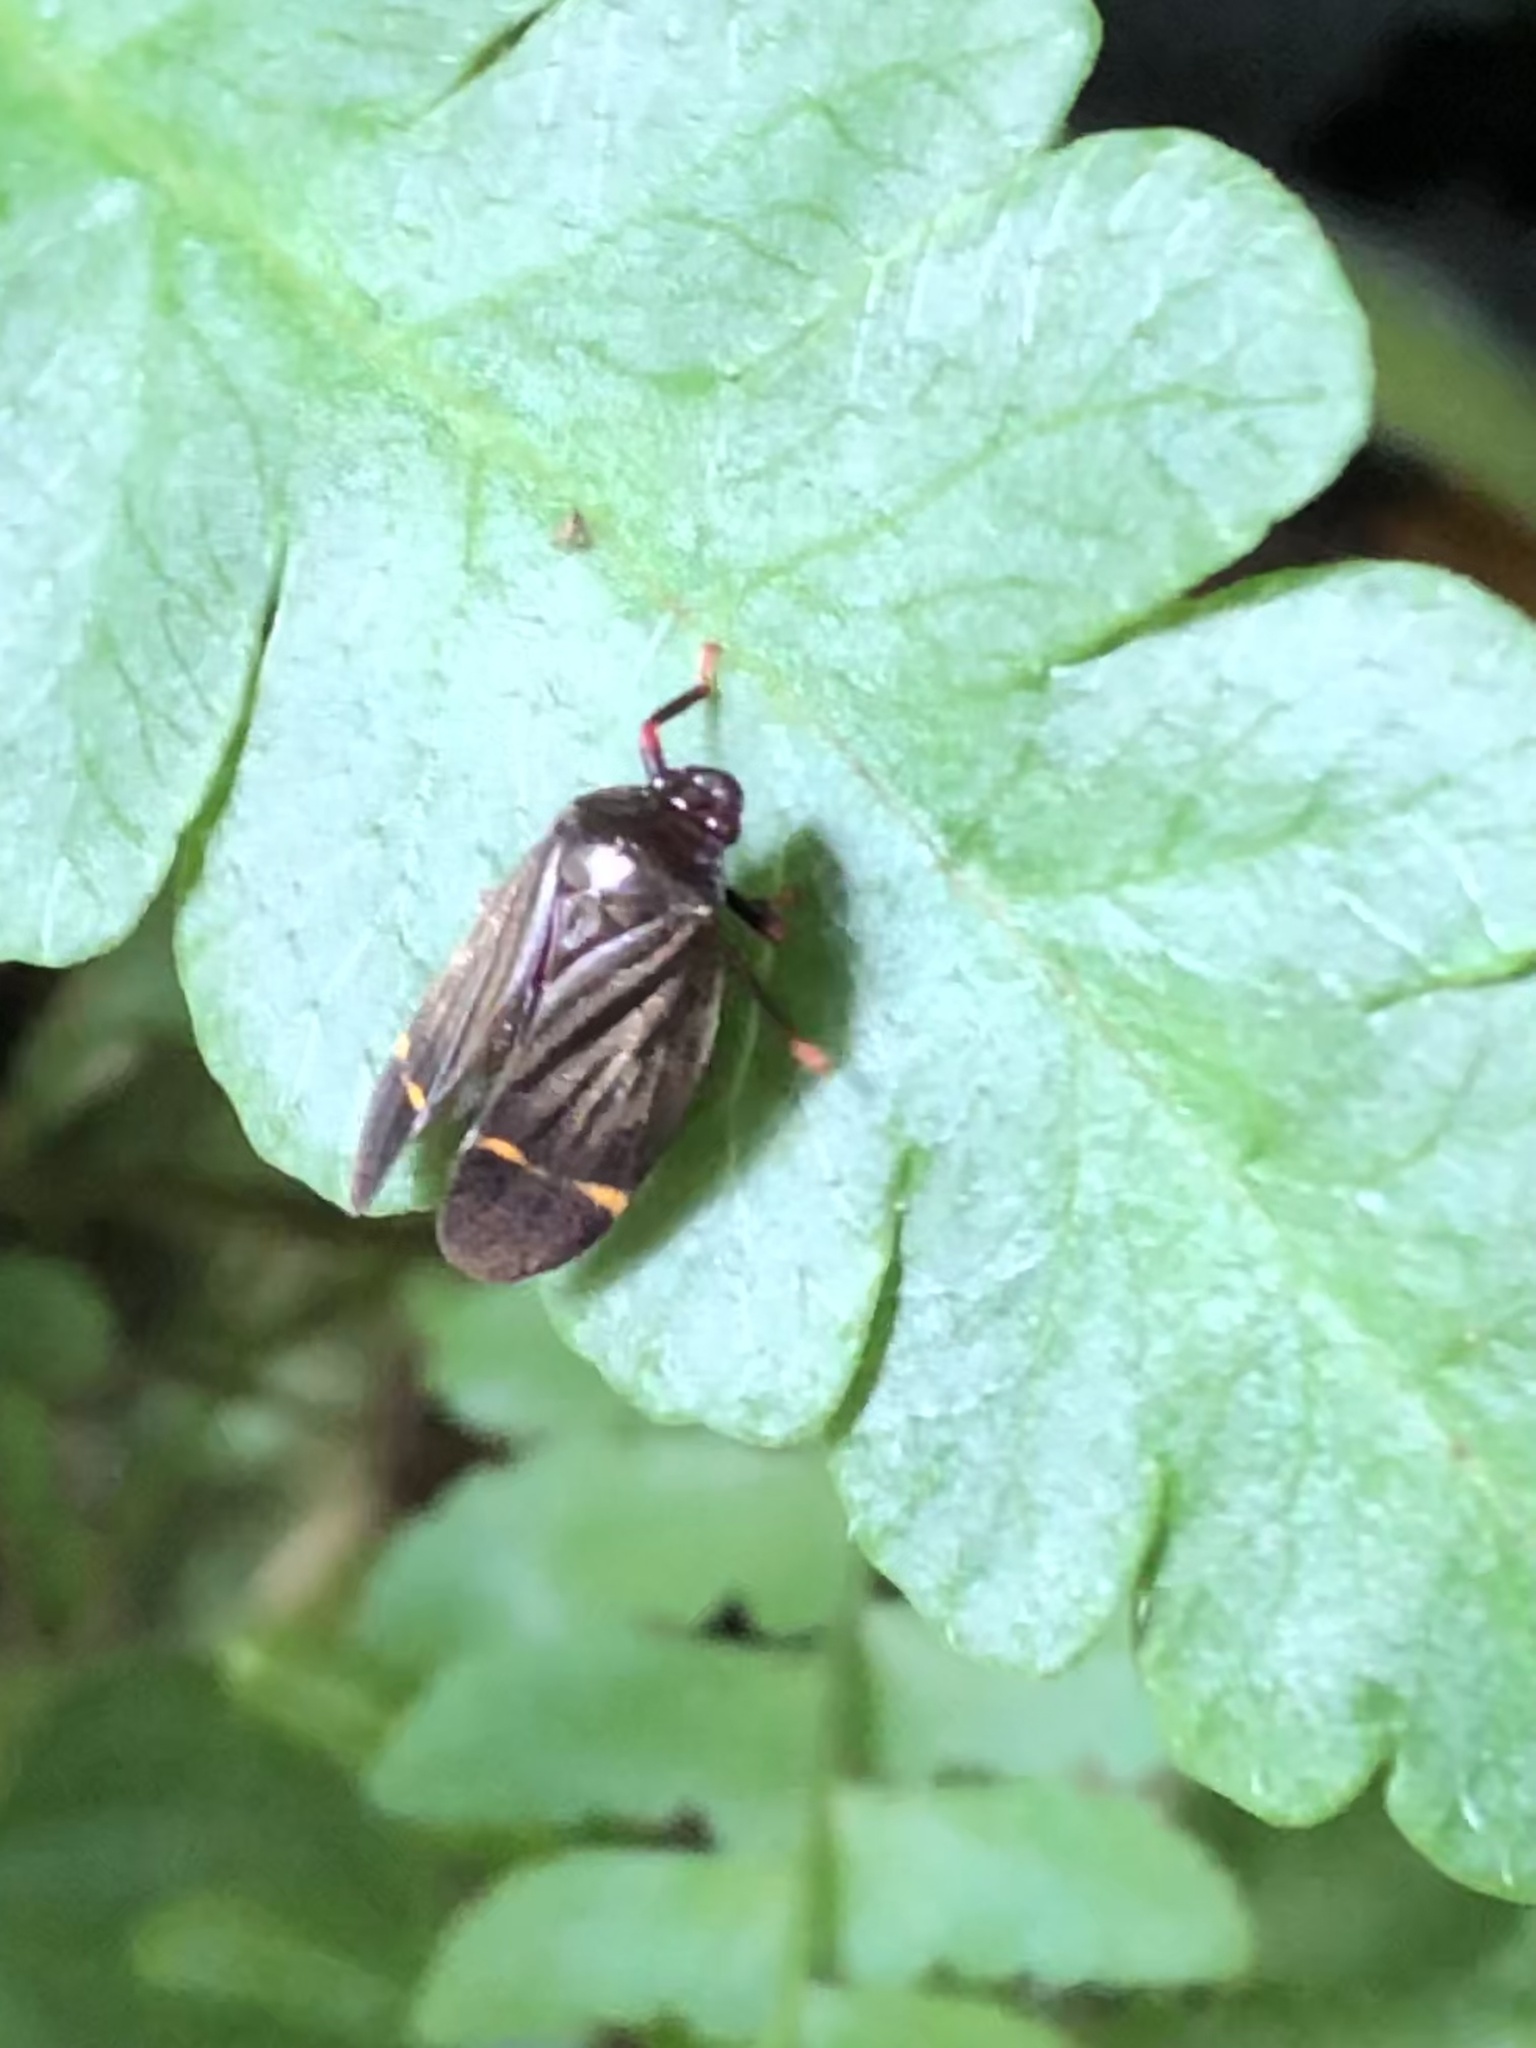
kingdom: Animalia
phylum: Arthropoda
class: Insecta
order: Hemiptera
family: Cercopidae
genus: Maxantonia
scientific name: Maxantonia catella
